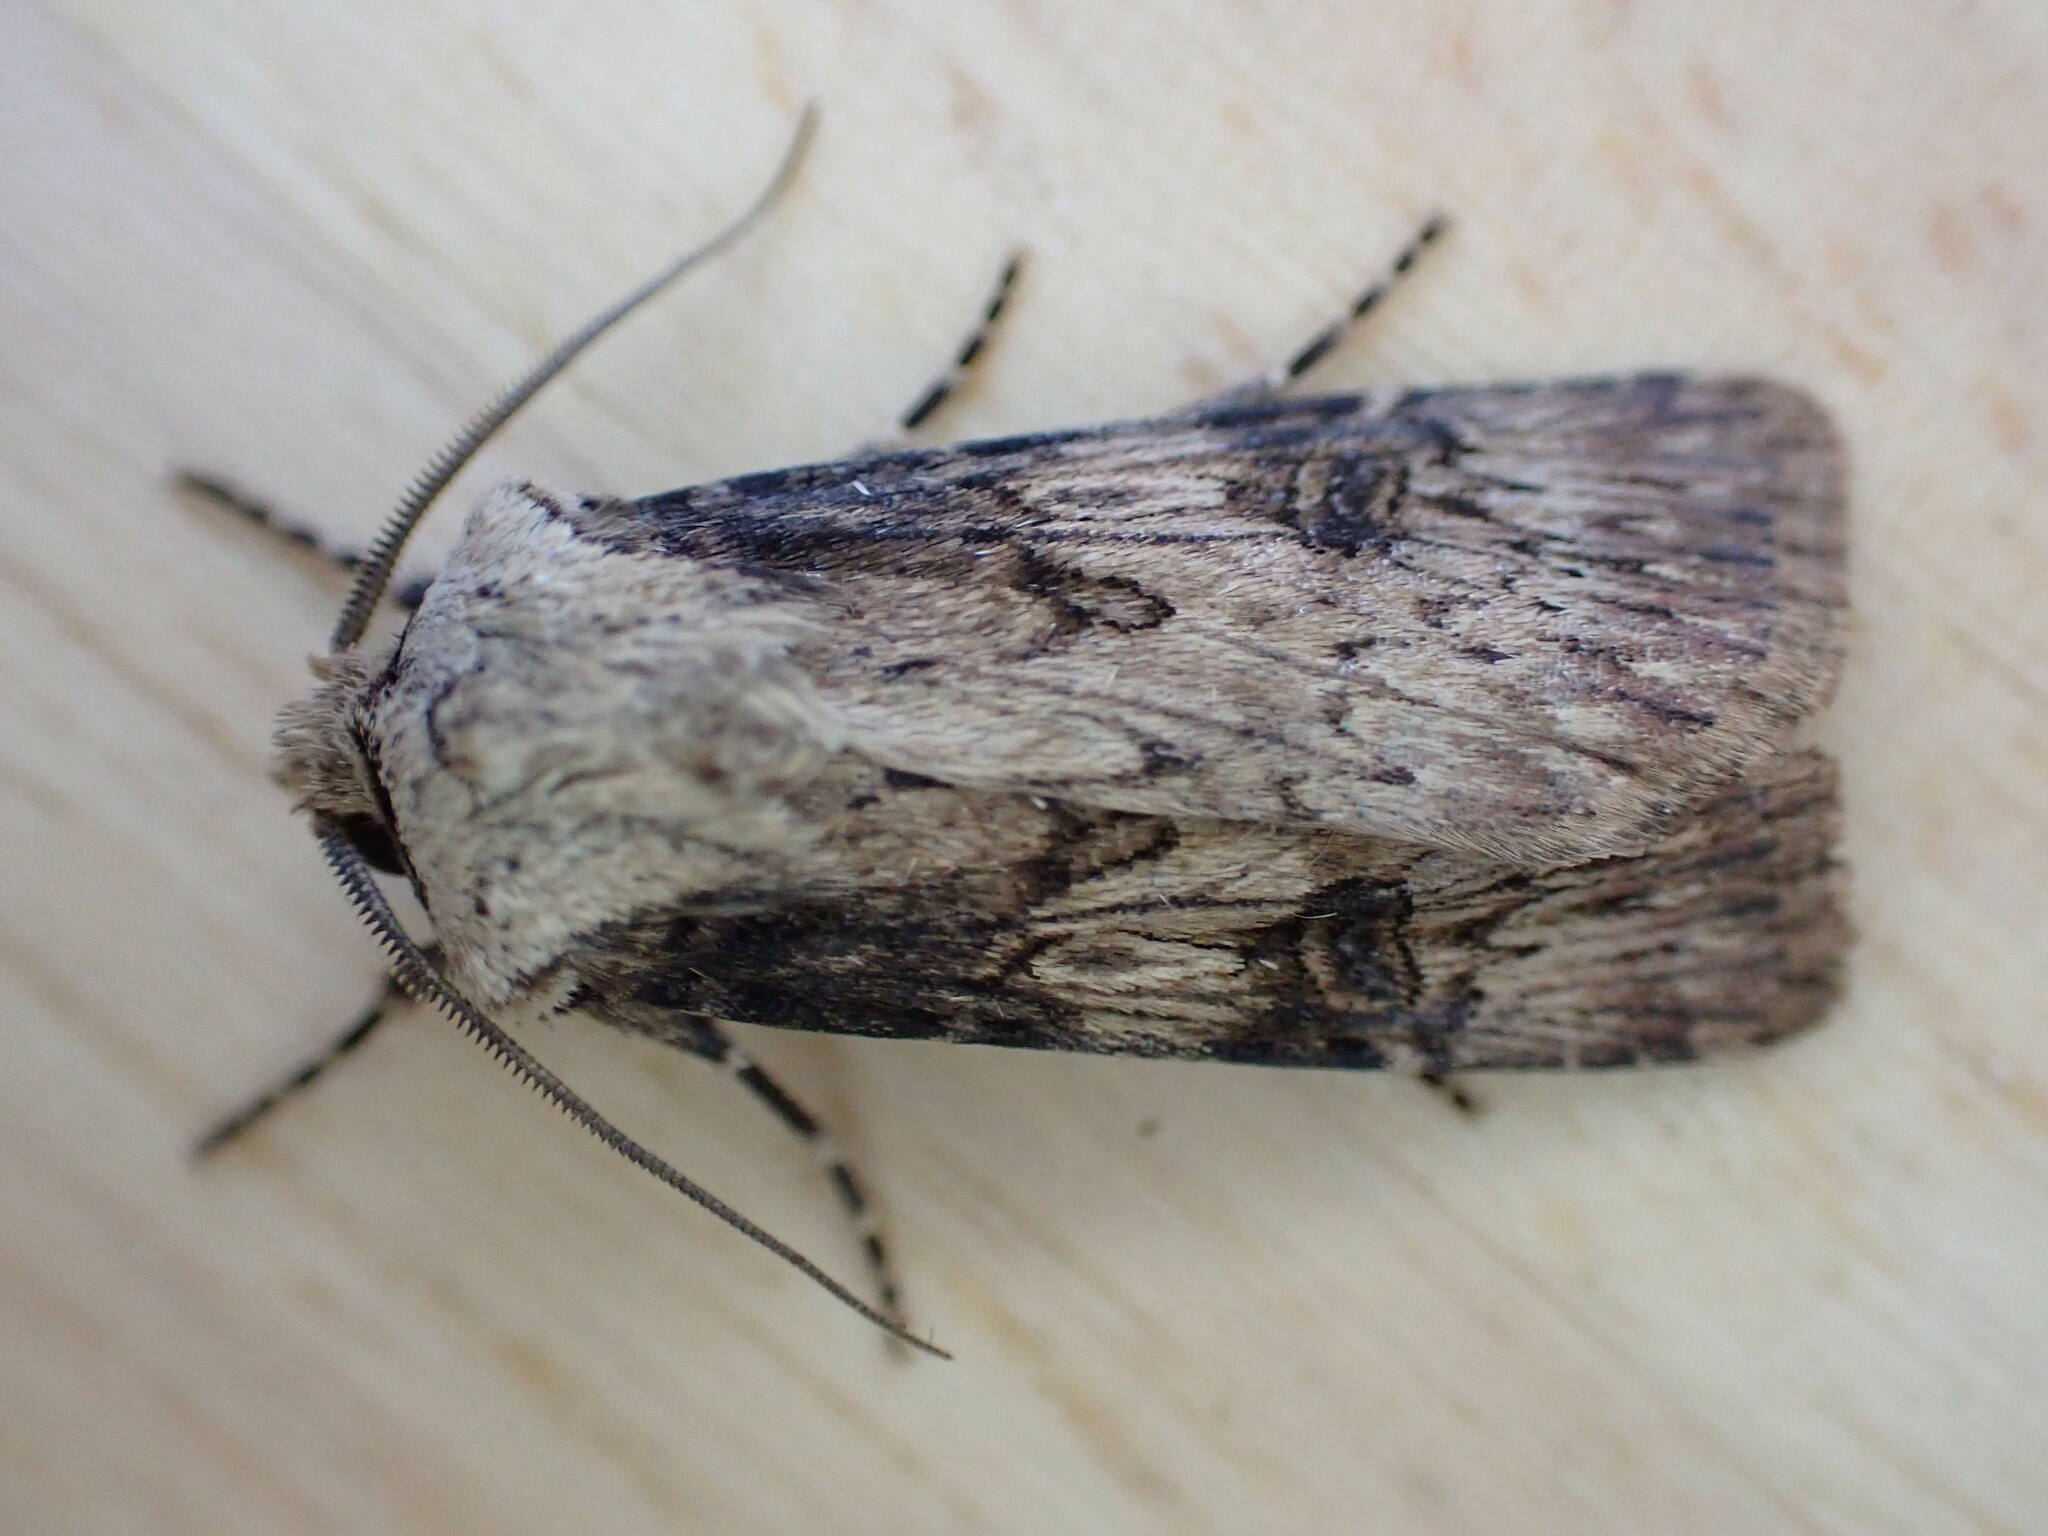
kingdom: Animalia
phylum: Arthropoda
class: Insecta
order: Lepidoptera
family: Noctuidae
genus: Agrotis
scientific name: Agrotis puta
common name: Shuttle-shaped dart
